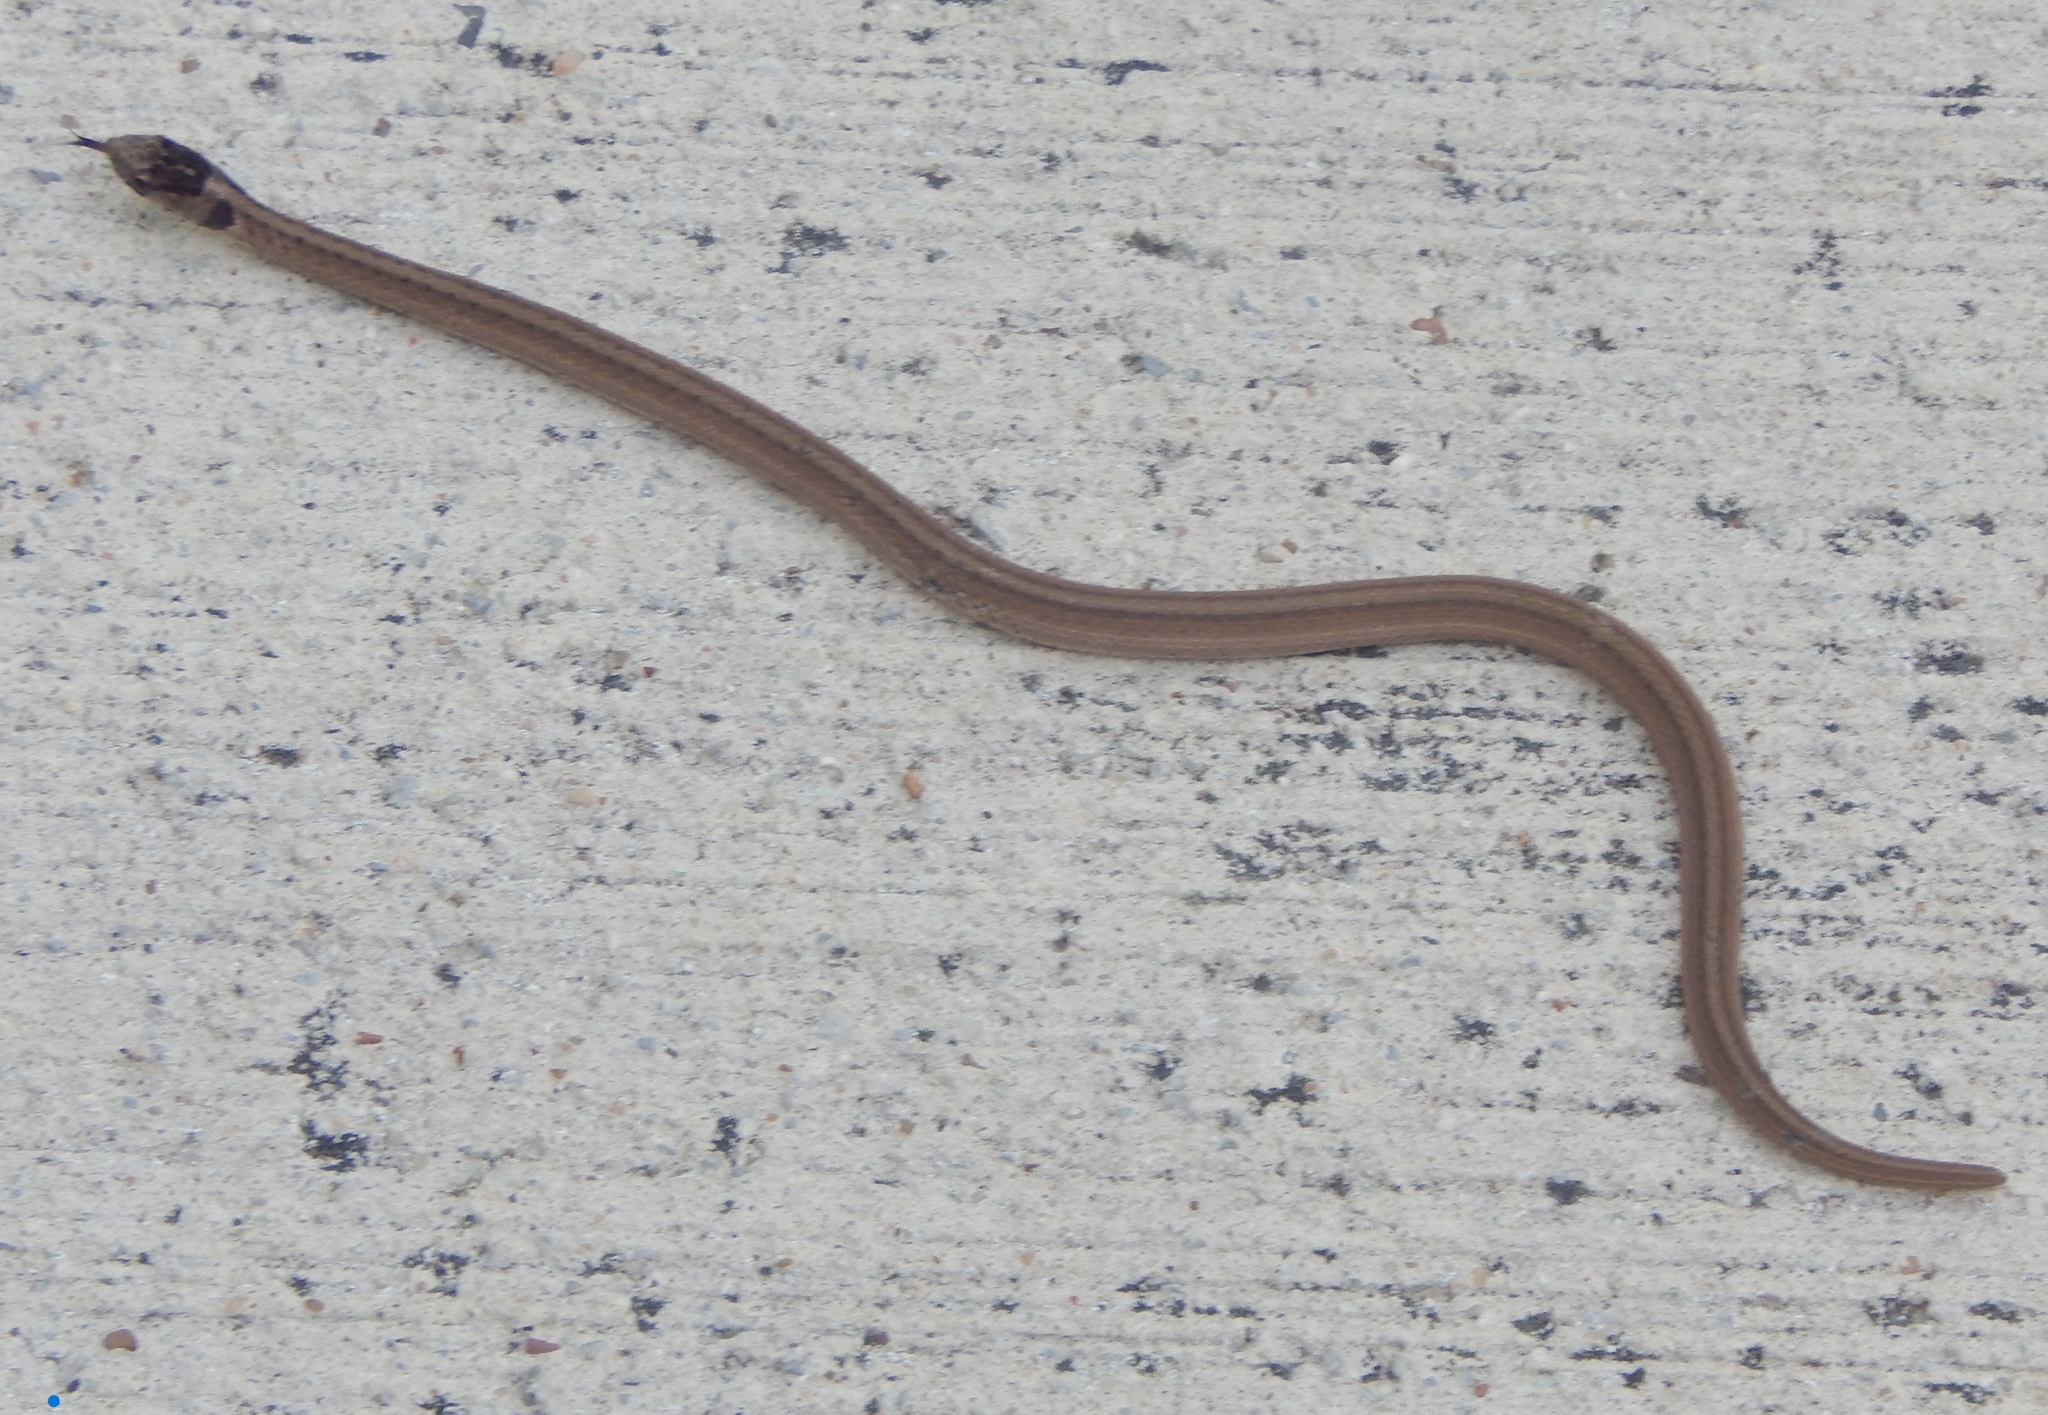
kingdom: Animalia
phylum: Chordata
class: Squamata
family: Colubridae
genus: Storeria
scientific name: Storeria dekayi
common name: (dekay’s) brown snake
